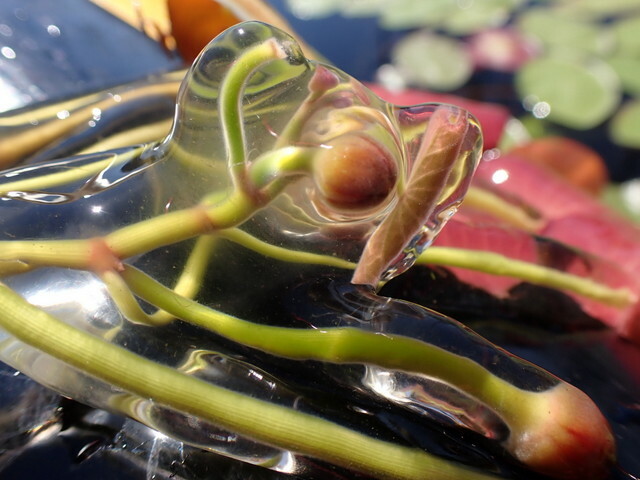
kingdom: Plantae
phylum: Tracheophyta
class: Magnoliopsida
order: Nymphaeales
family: Cabombaceae
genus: Brasenia
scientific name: Brasenia schreberi
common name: Water-shield
